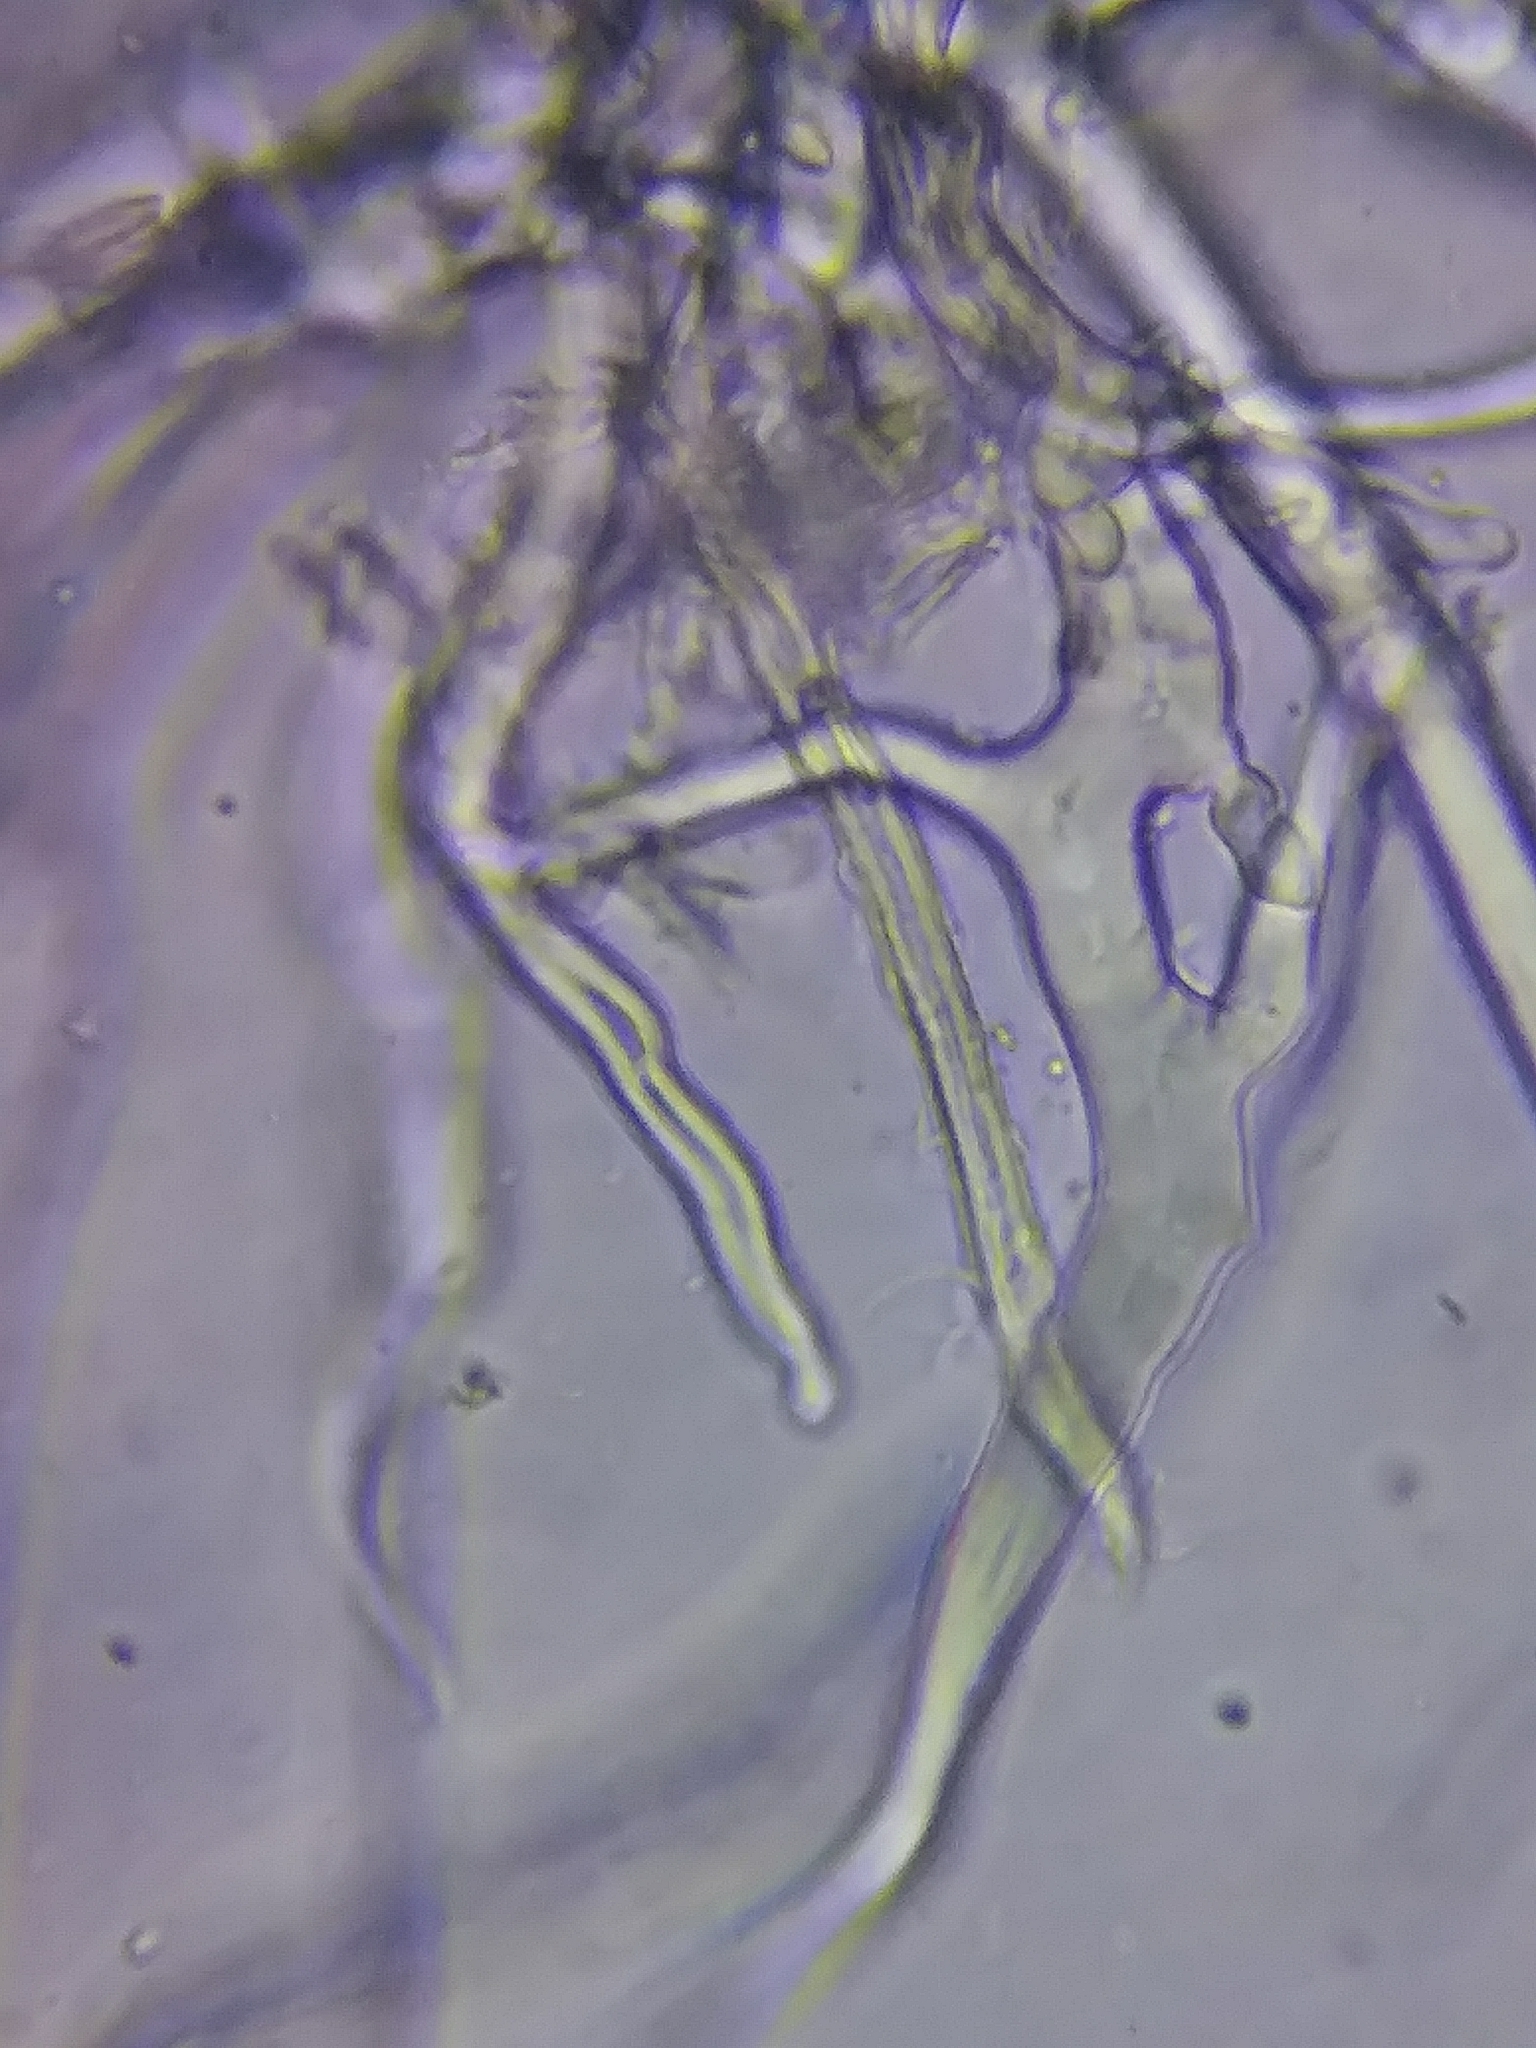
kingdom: Fungi
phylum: Ascomycota
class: Pezizomycetes
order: Pezizales
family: Pyronemataceae
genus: Sphaerosporium
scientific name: Sphaerosporium lignatile
